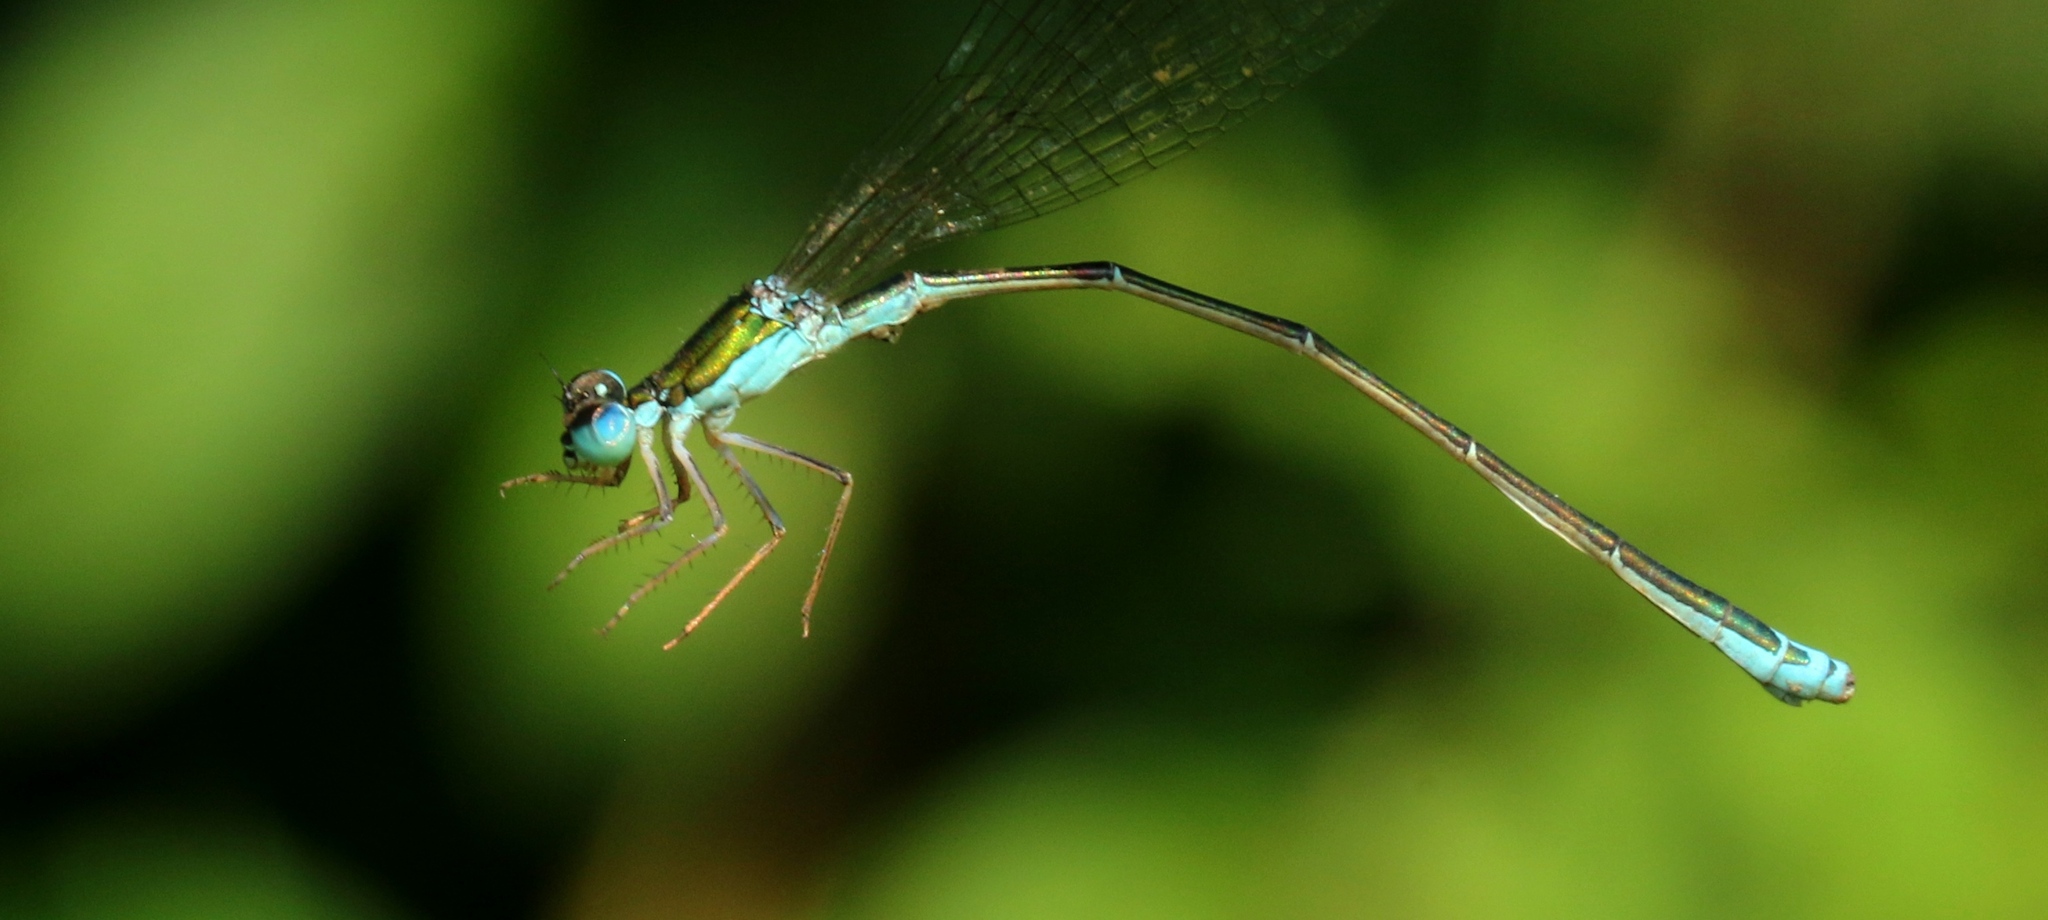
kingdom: Animalia
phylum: Arthropoda
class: Insecta
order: Odonata
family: Coenagrionidae
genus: Nehalennia
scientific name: Nehalennia irene
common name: Sedge sprite
